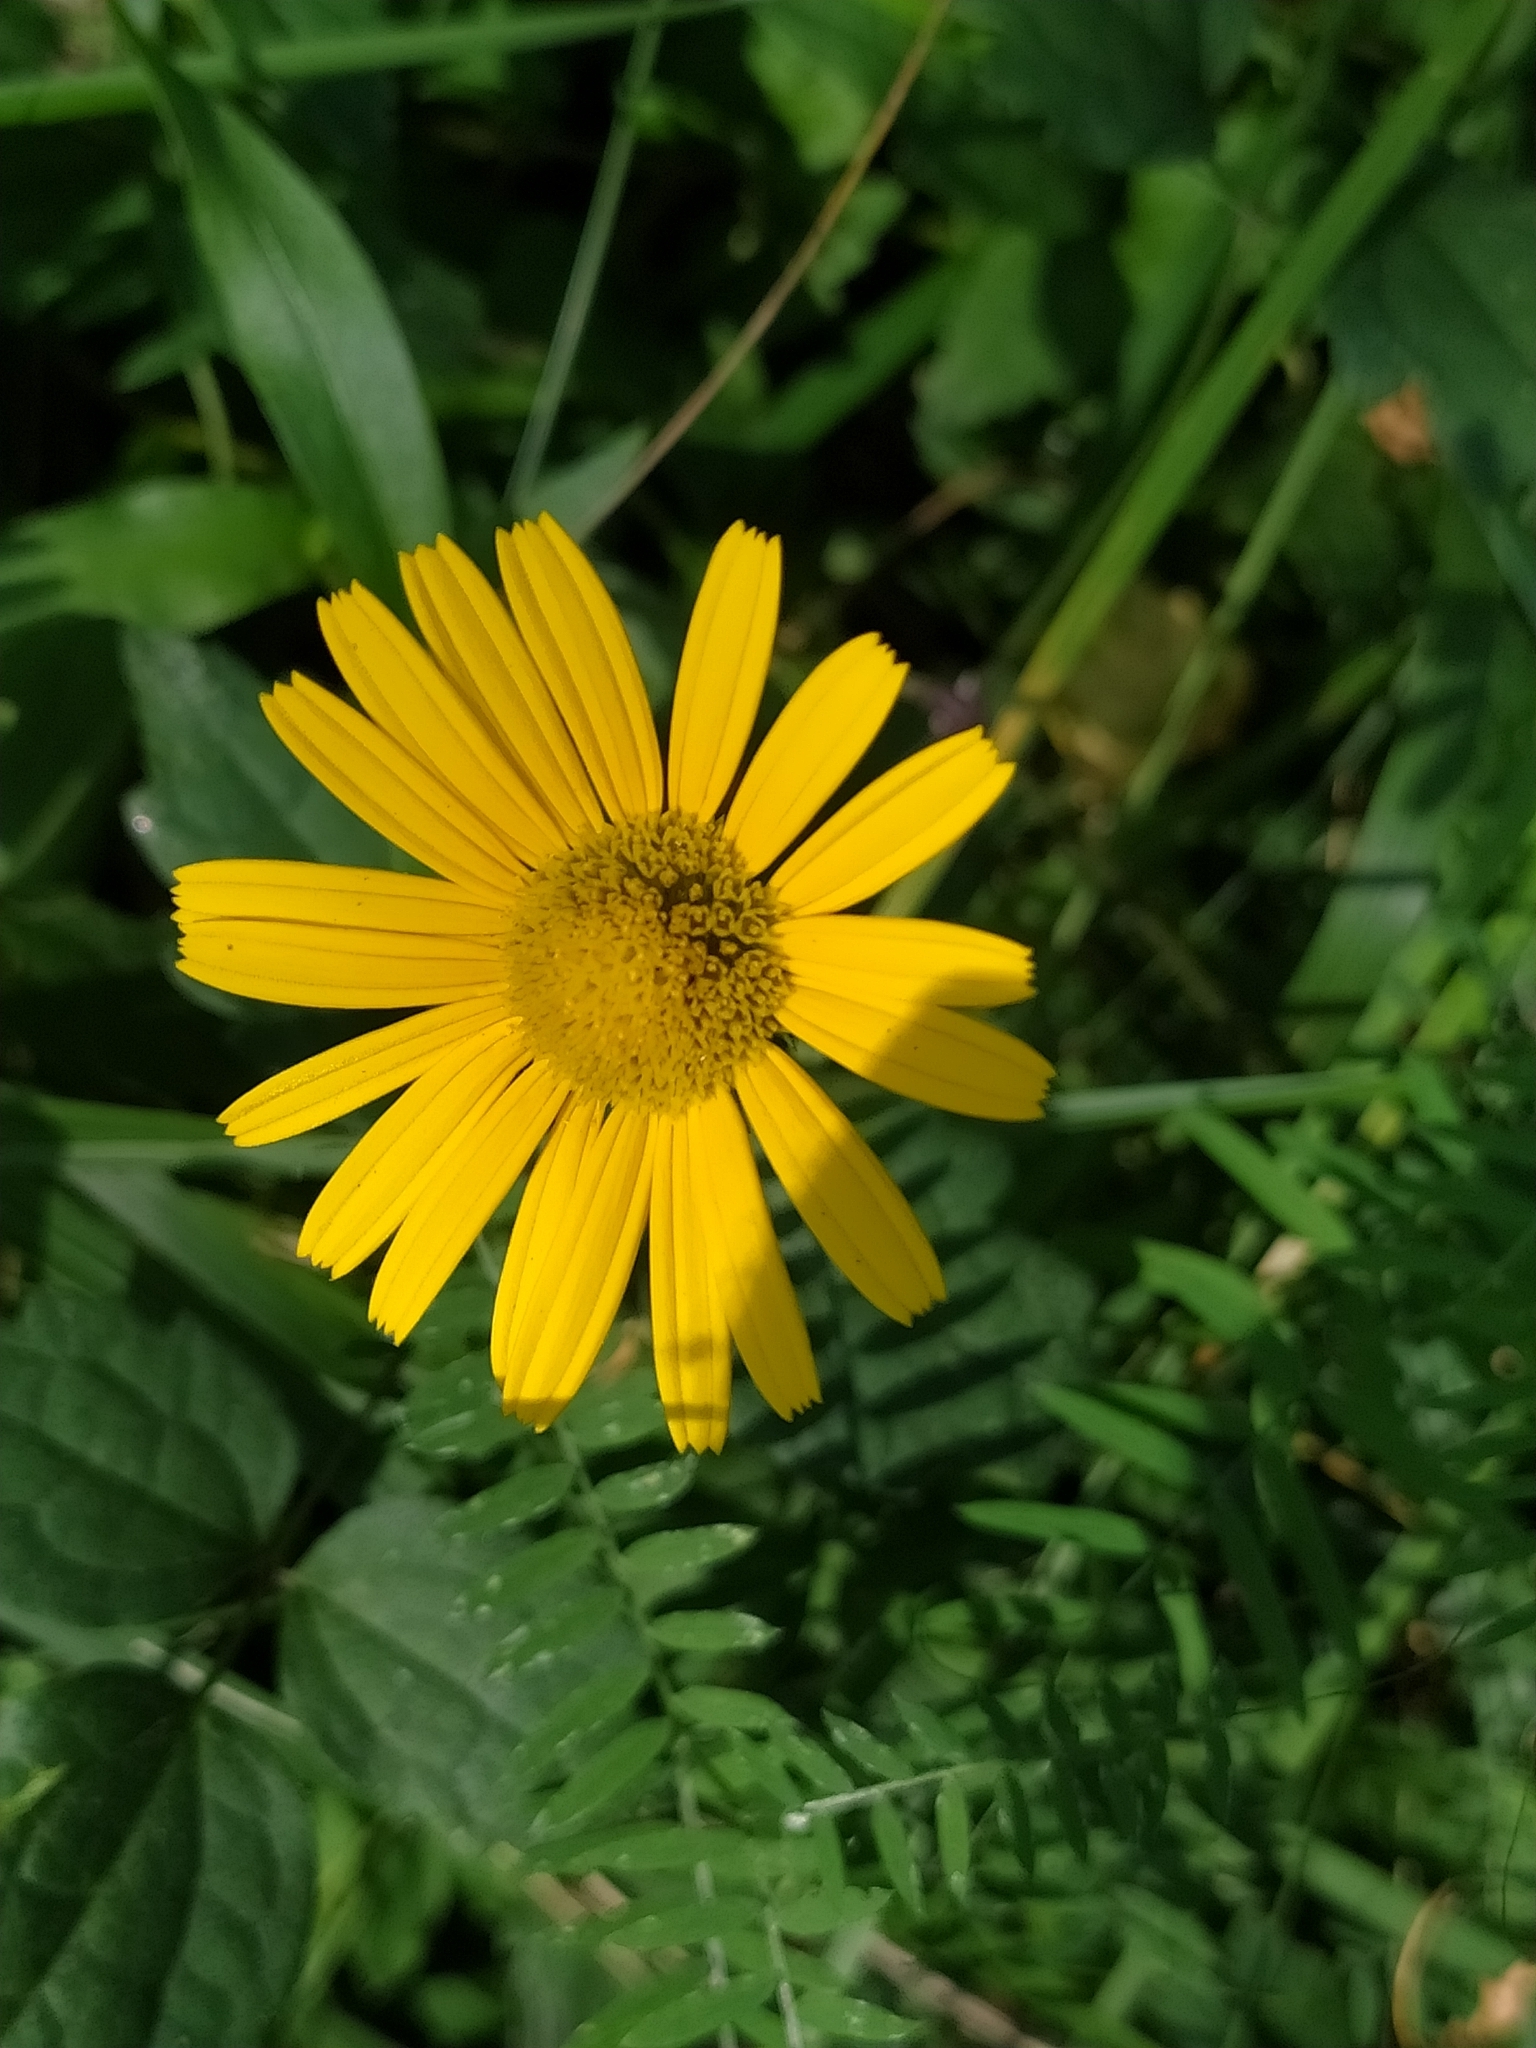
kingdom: Plantae
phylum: Tracheophyta
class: Magnoliopsida
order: Asterales
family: Asteraceae
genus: Buphthalmum
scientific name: Buphthalmum salicifolium
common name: Willow-leaved yellow-oxeye
